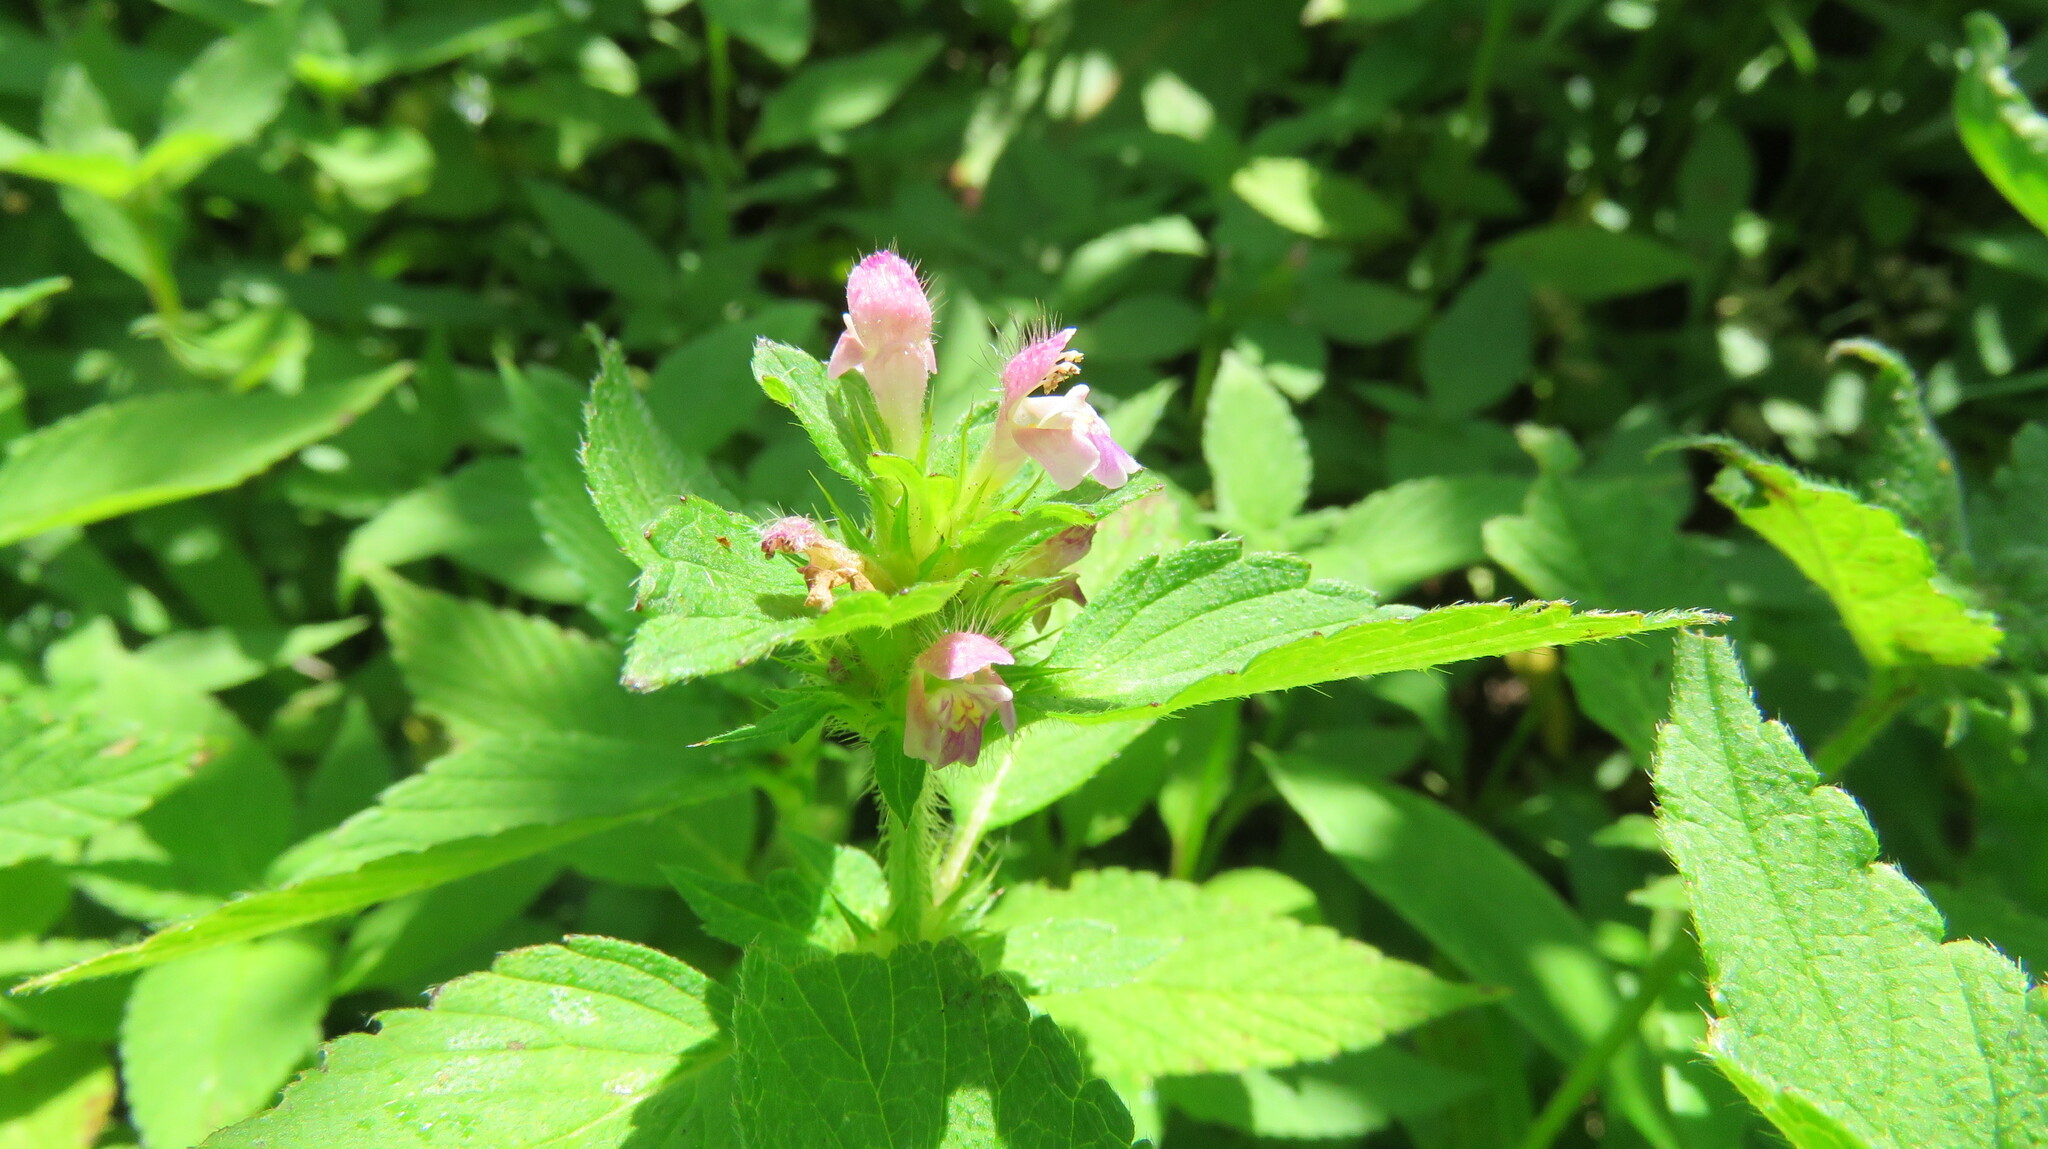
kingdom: Plantae
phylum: Tracheophyta
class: Magnoliopsida
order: Lamiales
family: Lamiaceae
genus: Galeopsis
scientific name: Galeopsis bifida
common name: Bifid hemp-nettle
